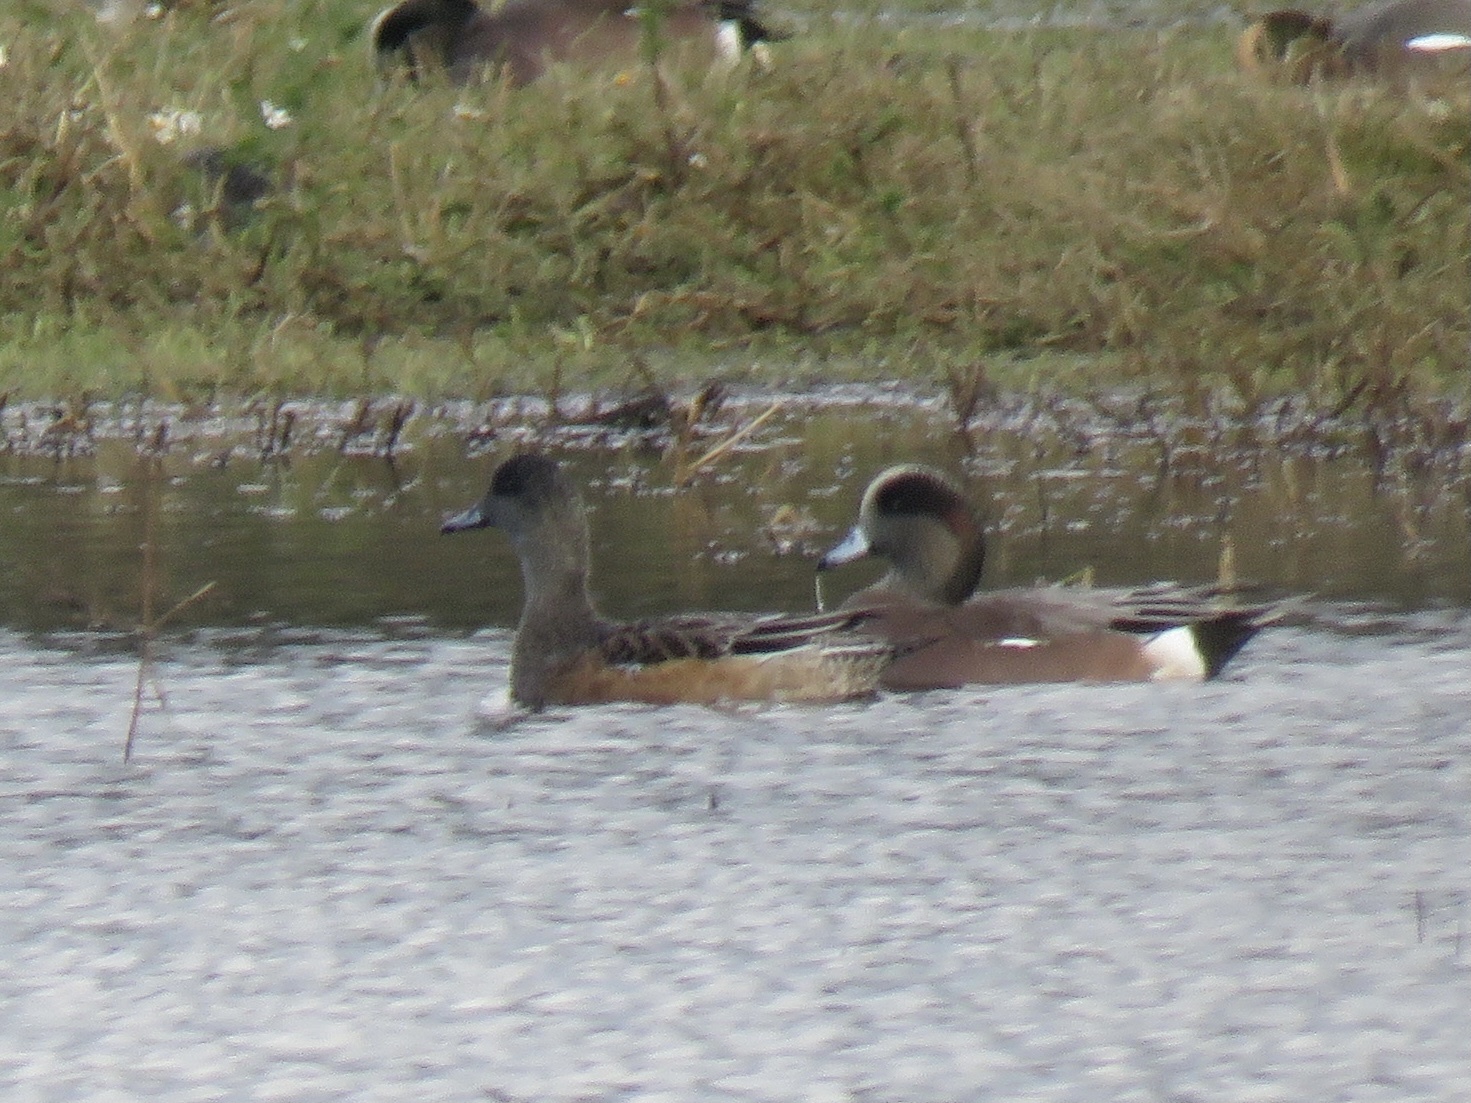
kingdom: Animalia
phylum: Chordata
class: Aves
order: Anseriformes
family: Anatidae
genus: Mareca
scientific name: Mareca americana
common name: American wigeon
